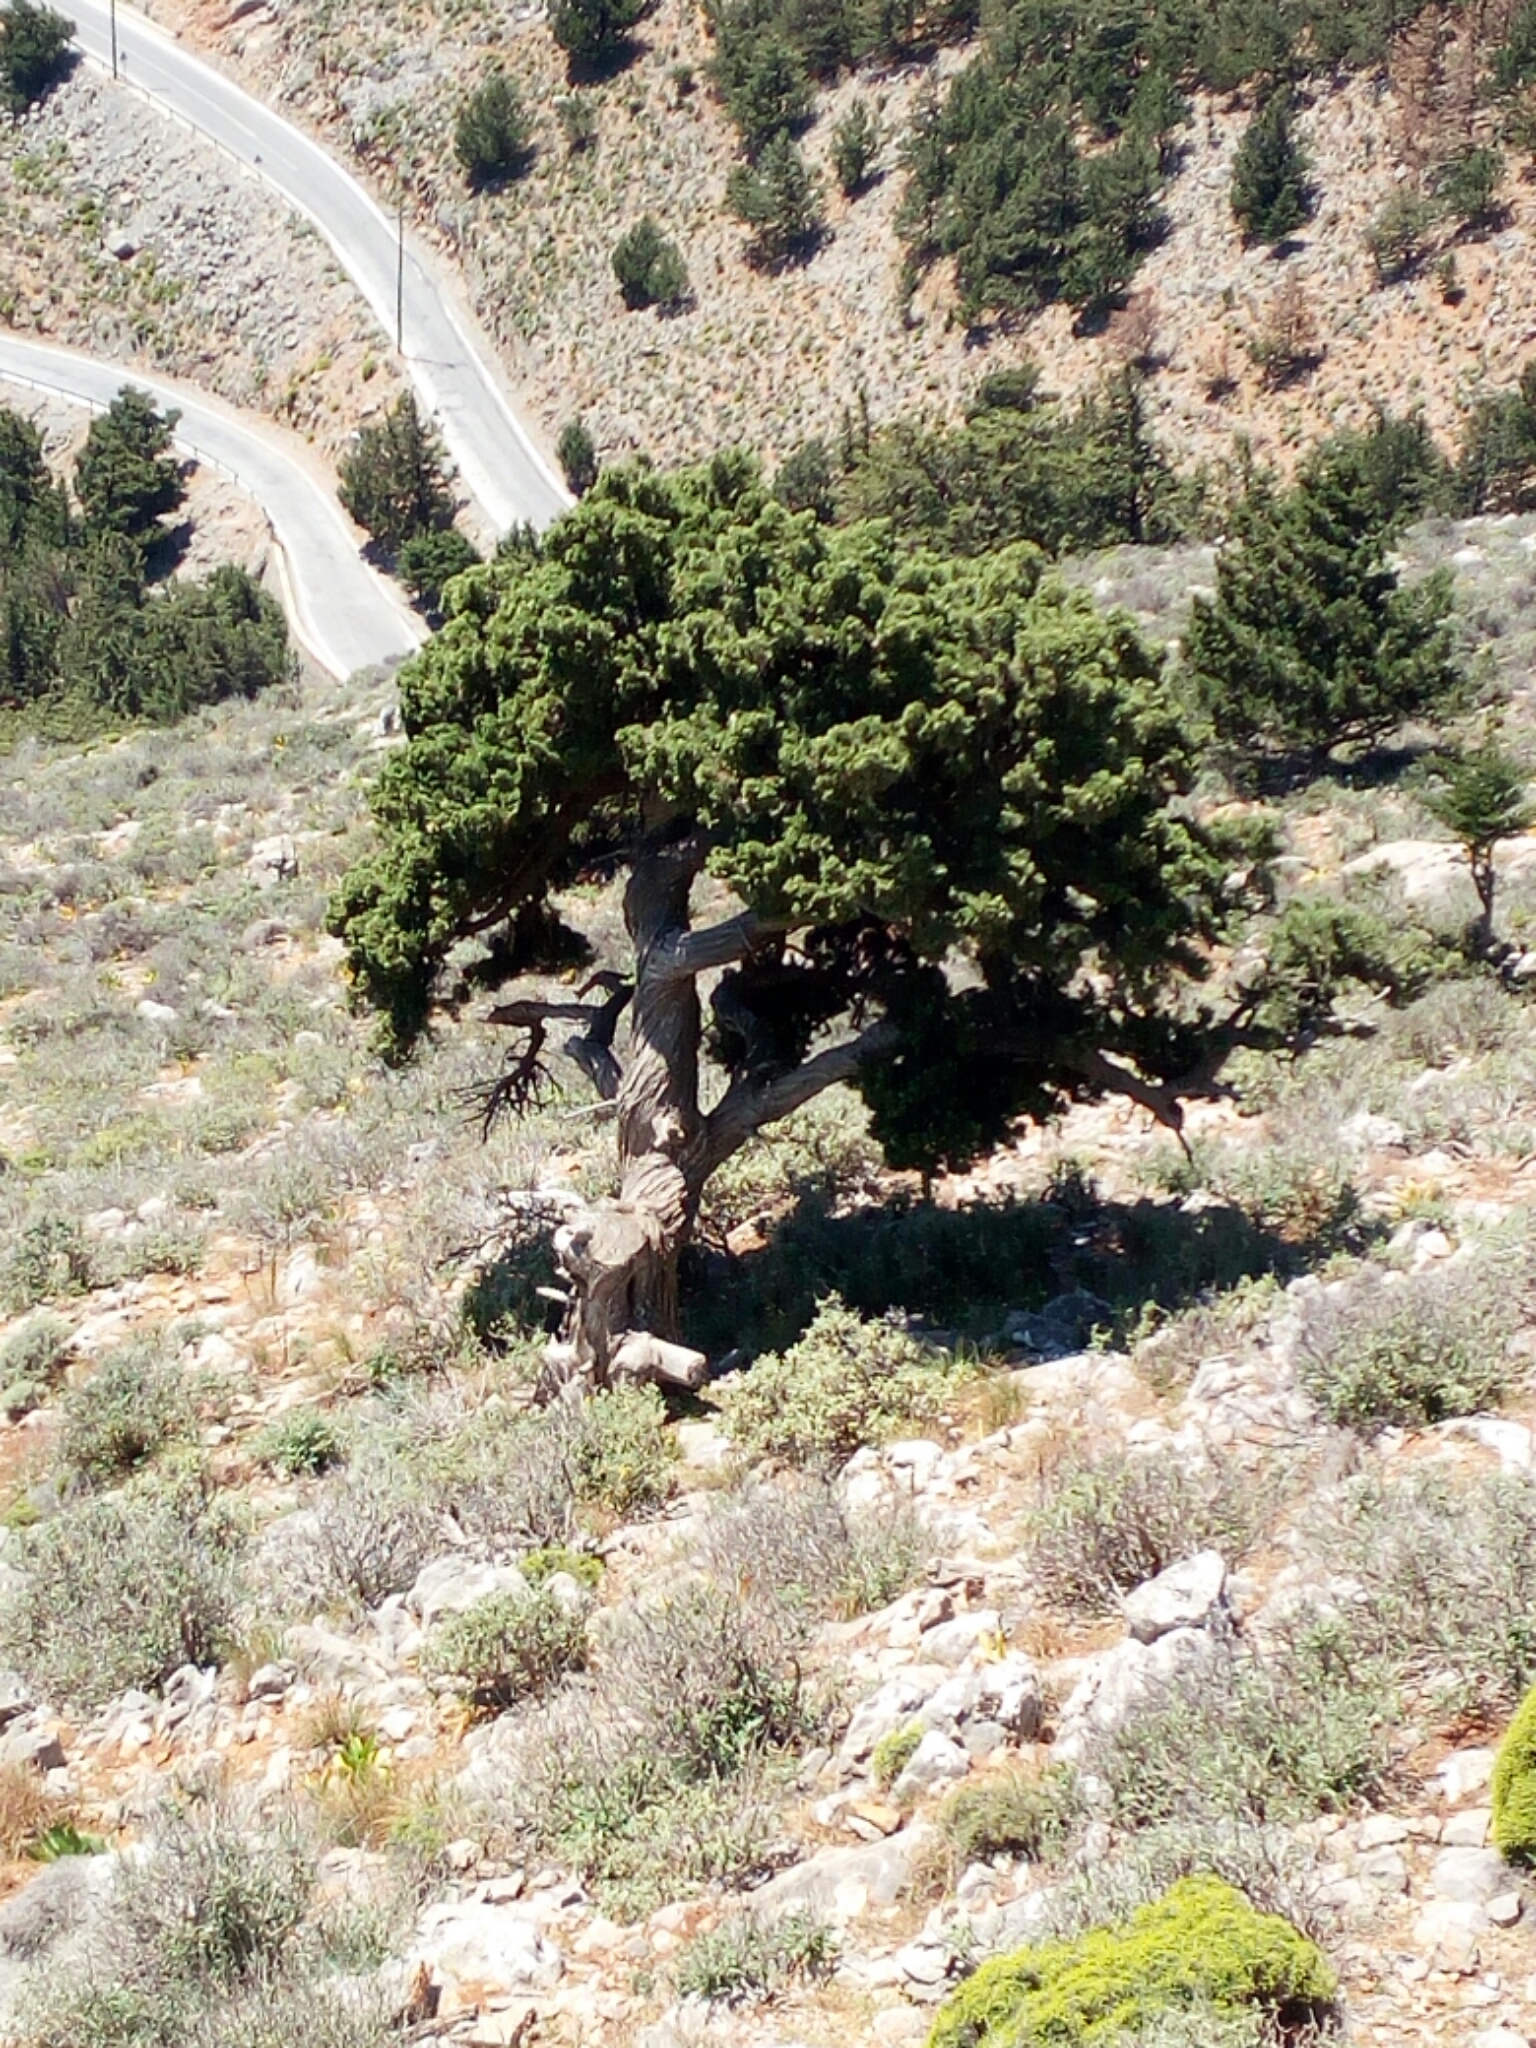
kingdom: Plantae
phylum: Tracheophyta
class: Pinopsida
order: Pinales
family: Cupressaceae
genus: Cupressus
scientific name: Cupressus sempervirens
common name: Italian cypress
